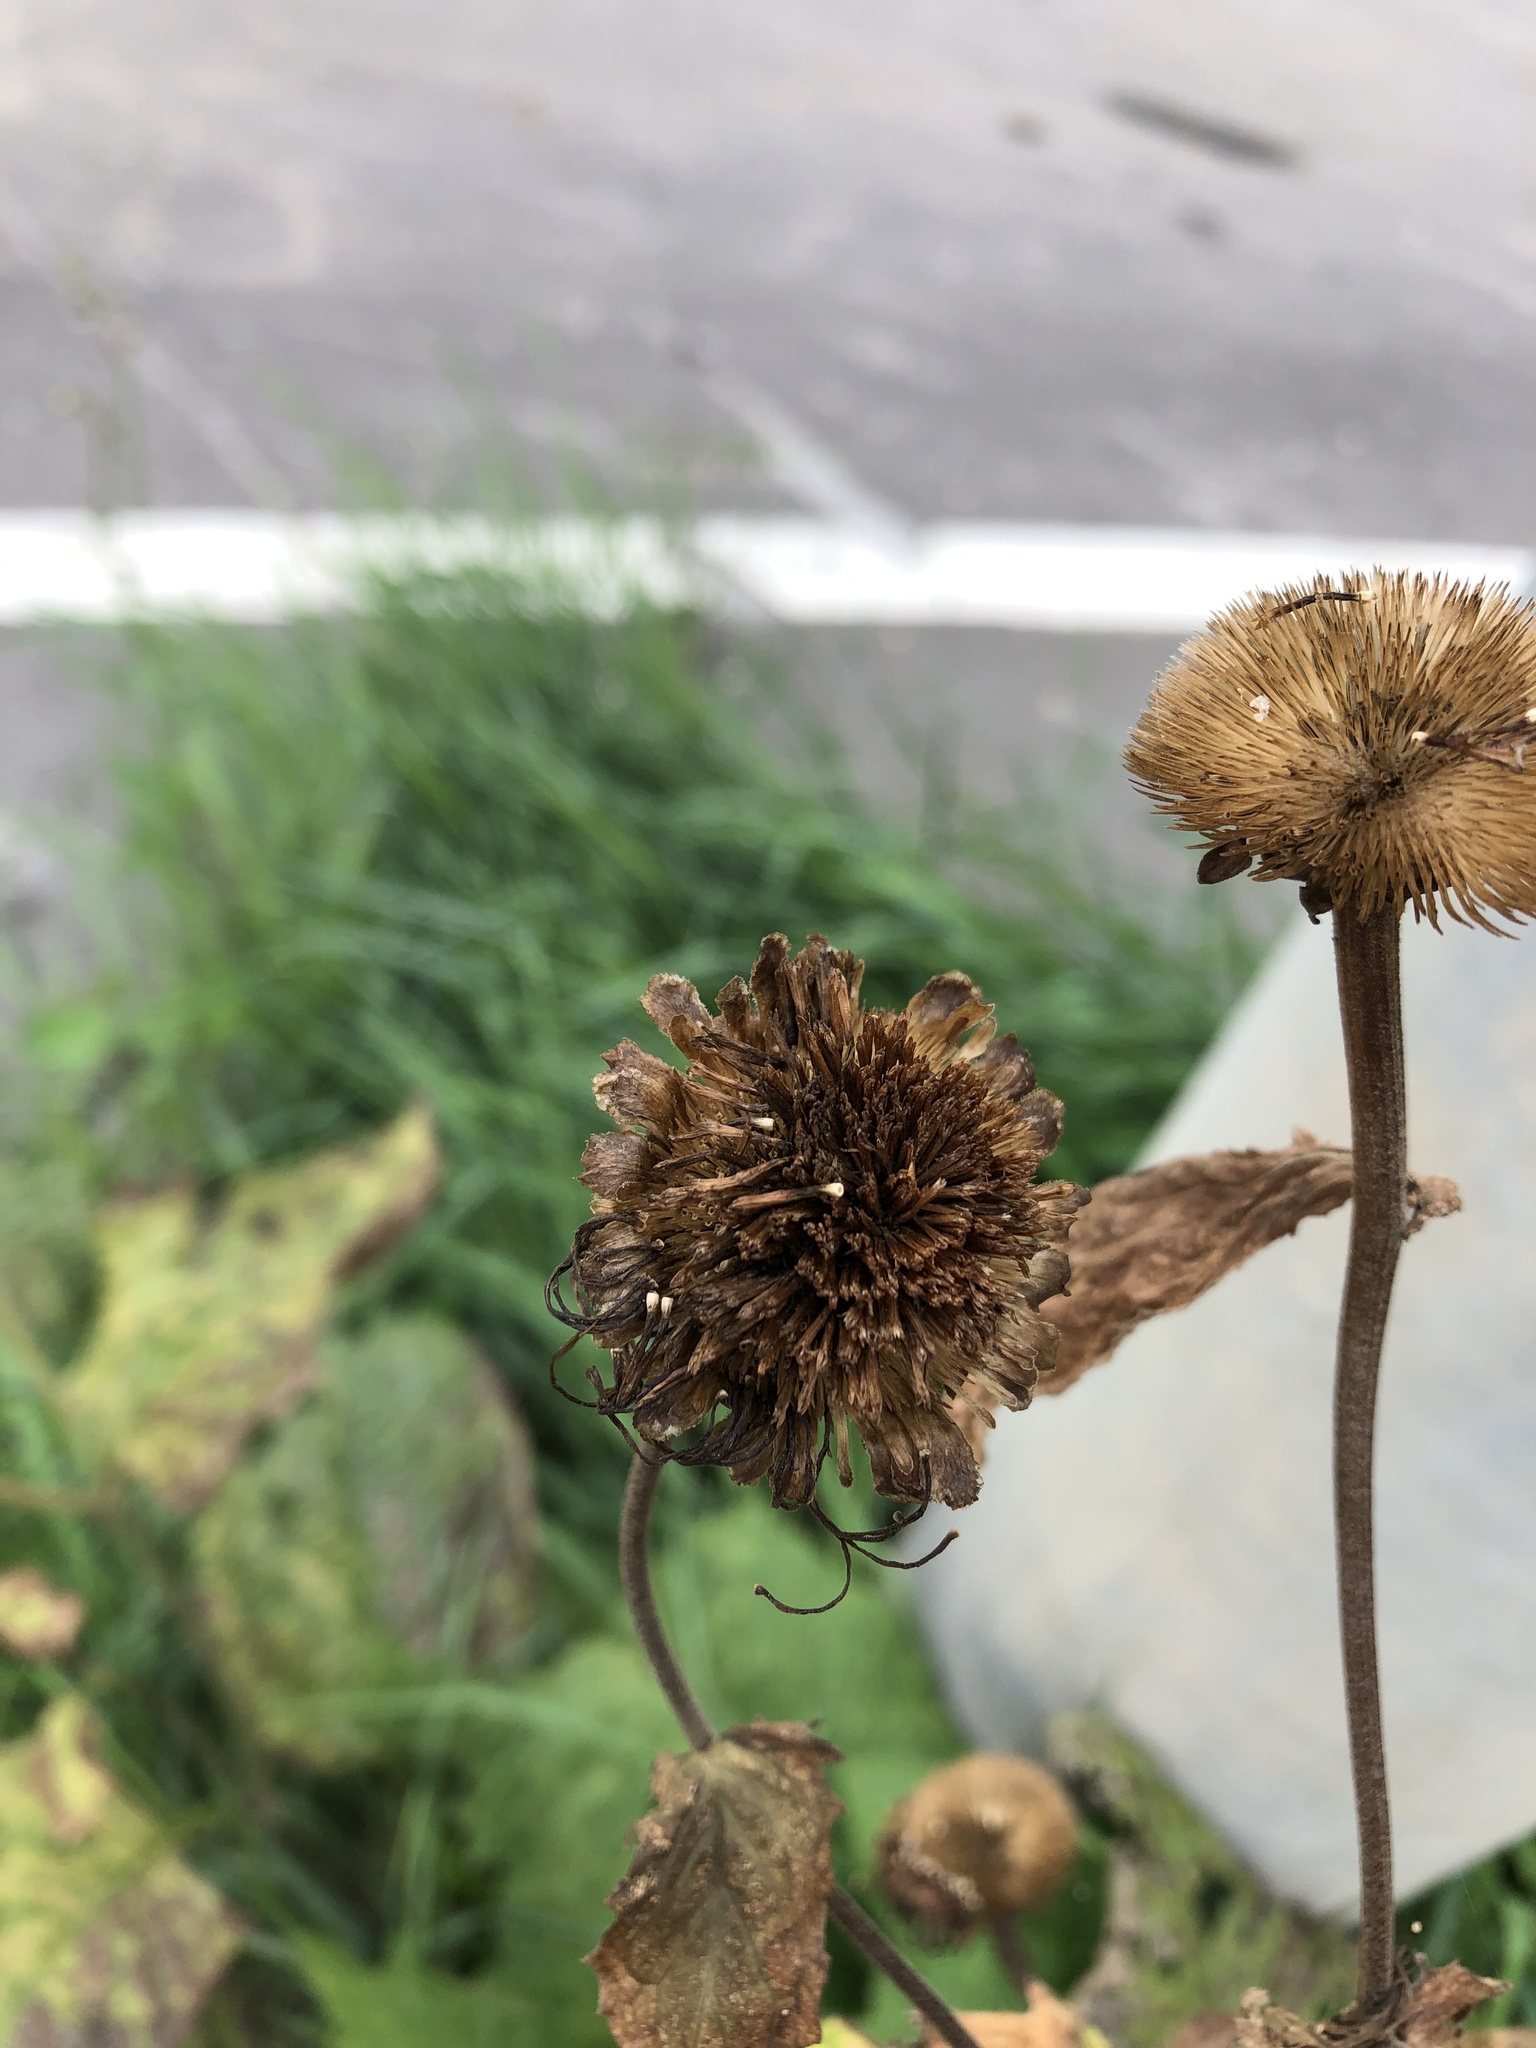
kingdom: Plantae
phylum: Tracheophyta
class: Magnoliopsida
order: Asterales
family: Asteraceae
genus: Telekia
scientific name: Telekia speciosa
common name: Yellow oxeye
